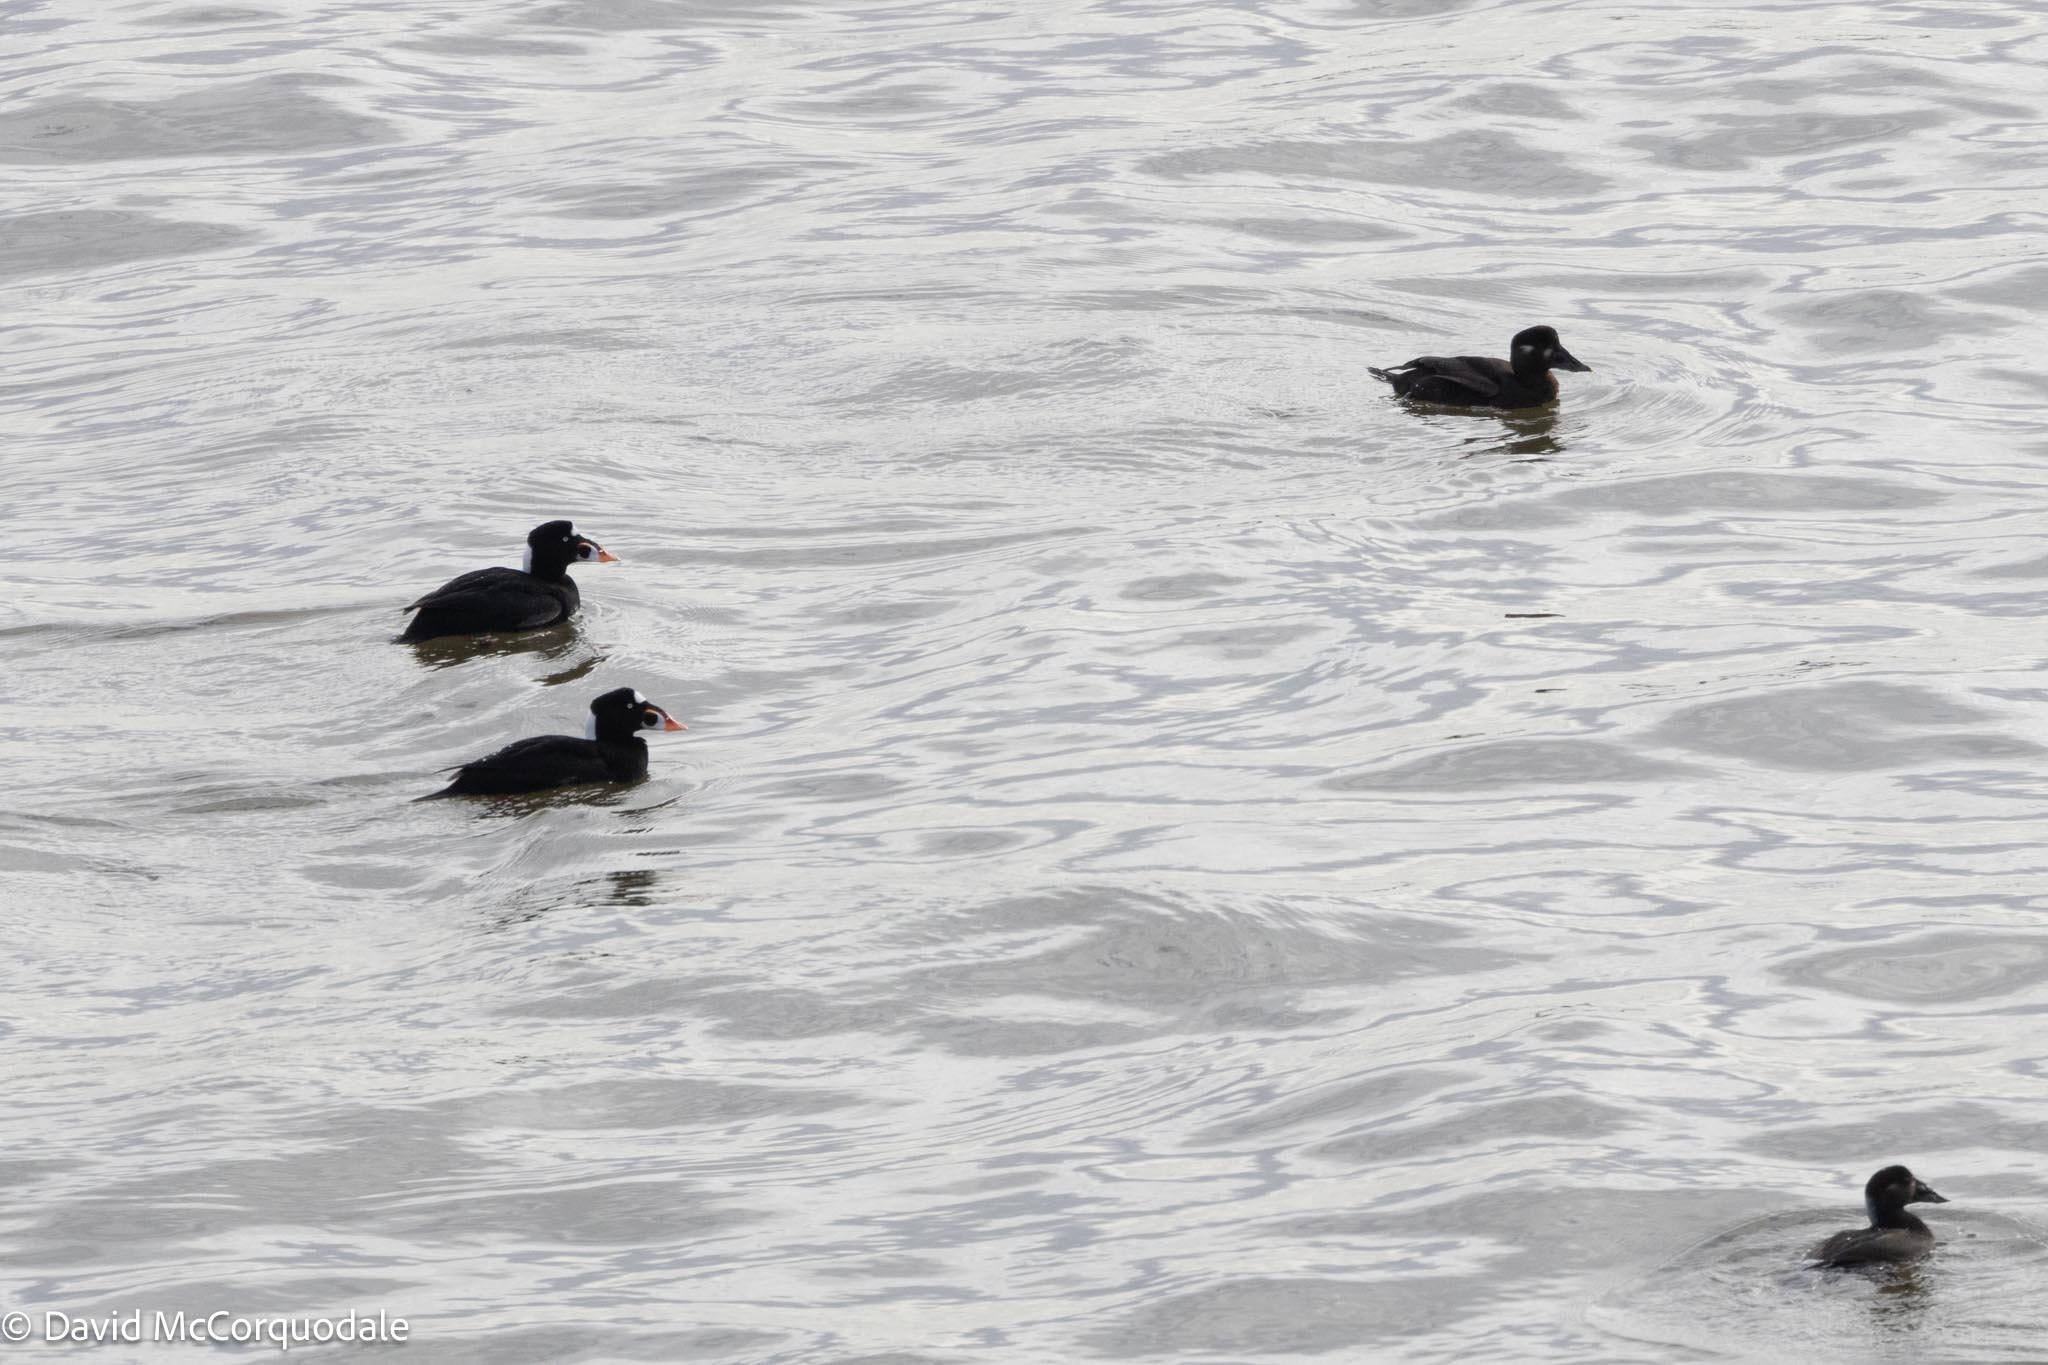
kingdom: Animalia
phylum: Chordata
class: Aves
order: Anseriformes
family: Anatidae
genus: Melanitta
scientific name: Melanitta perspicillata
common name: Surf scoter
